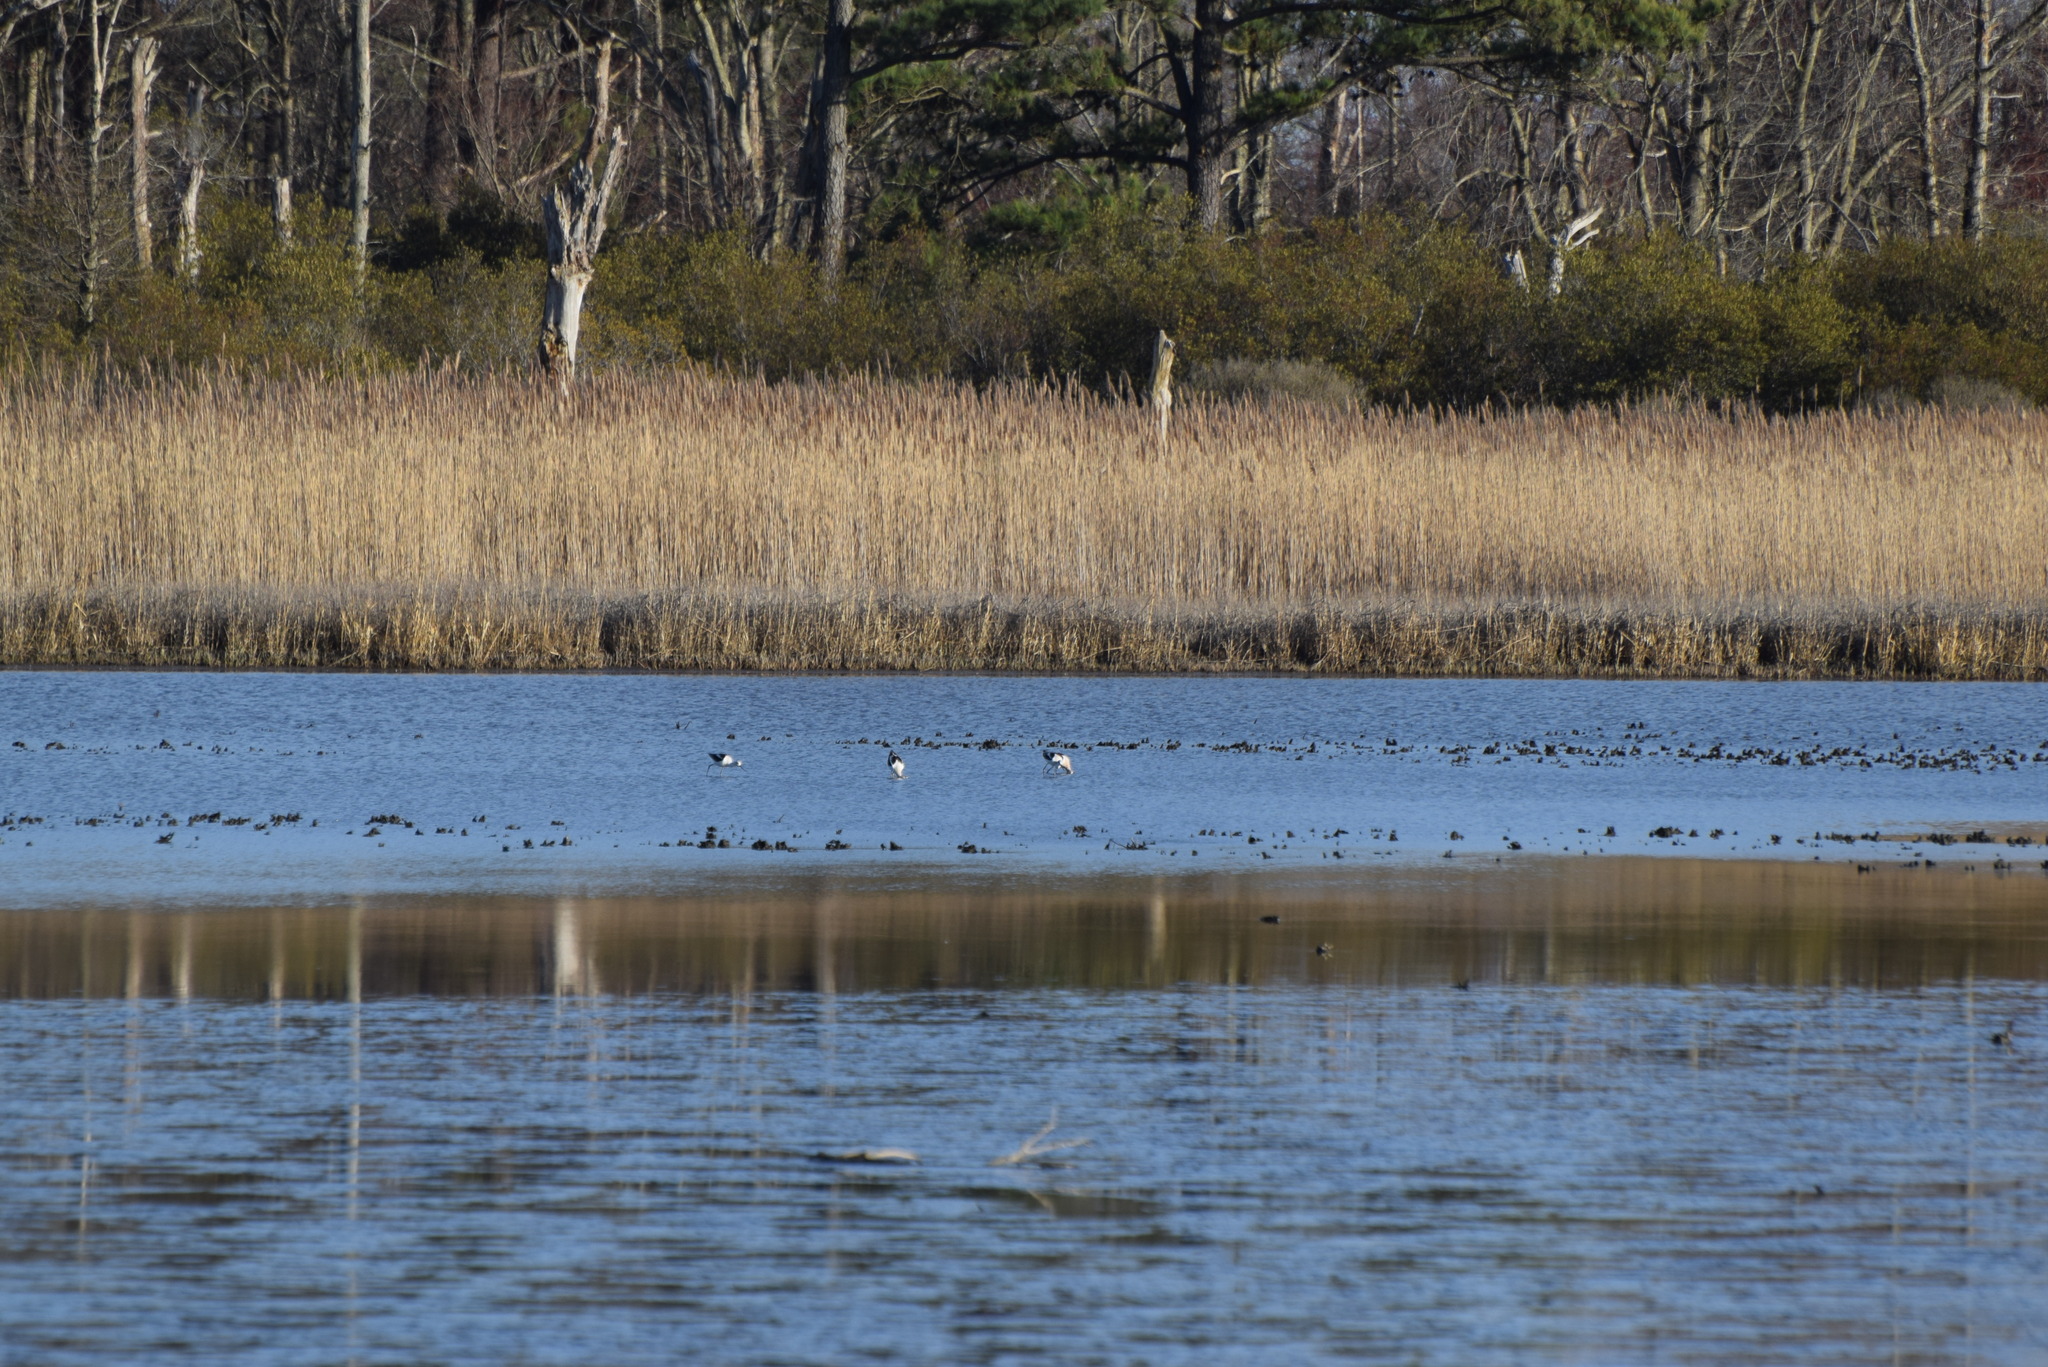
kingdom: Animalia
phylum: Chordata
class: Aves
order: Charadriiformes
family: Recurvirostridae
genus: Recurvirostra
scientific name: Recurvirostra americana
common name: American avocet
